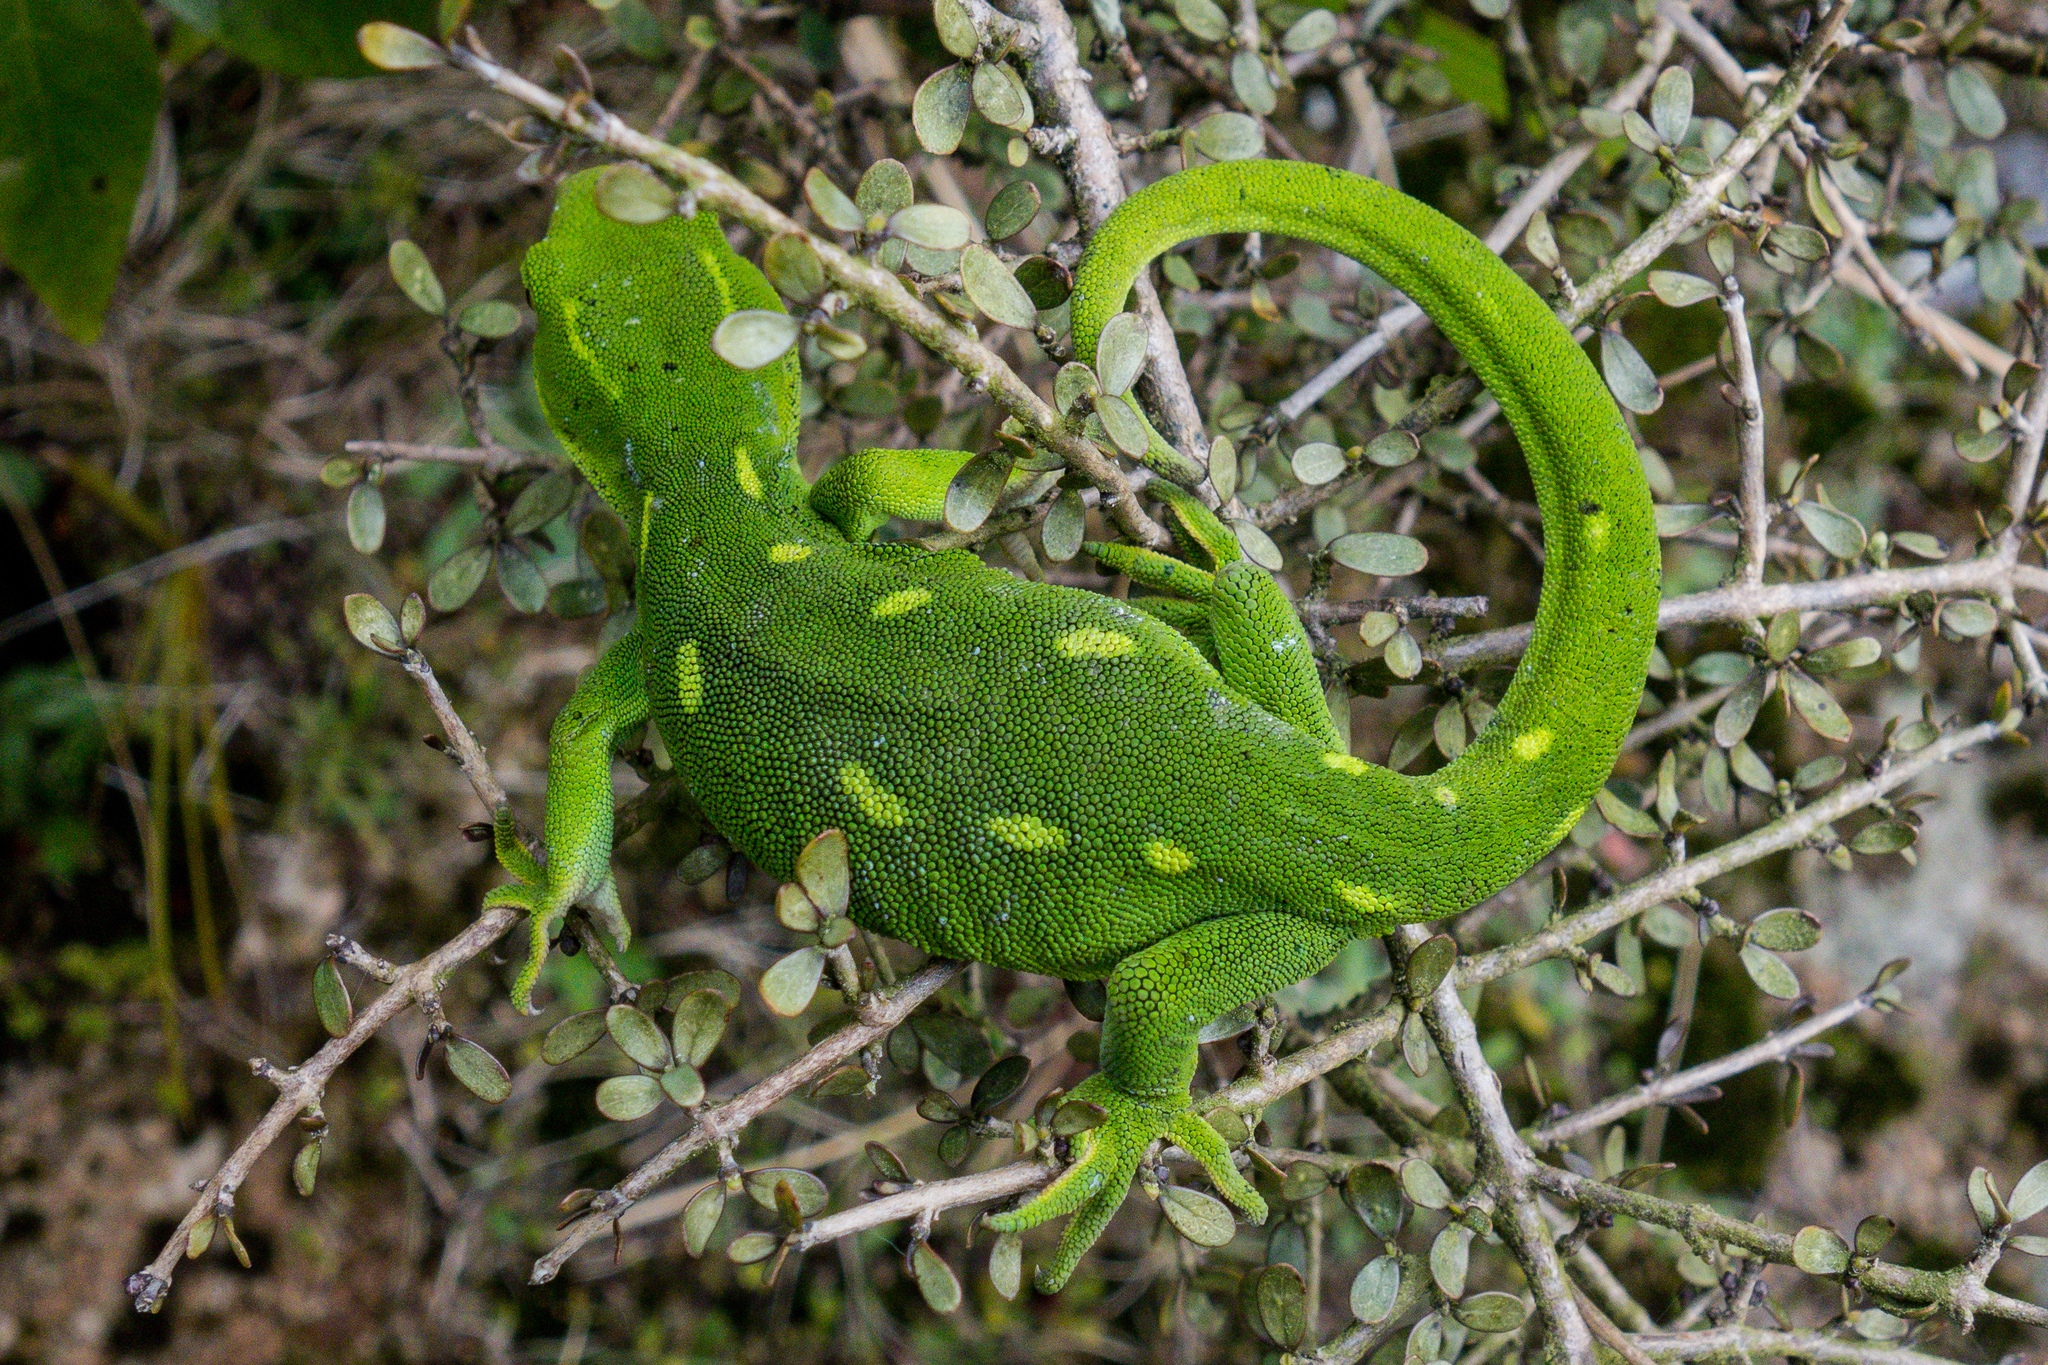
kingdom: Animalia
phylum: Chordata
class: Squamata
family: Diplodactylidae
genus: Naultinus
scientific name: Naultinus punctatus
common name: Wellington green gecko
